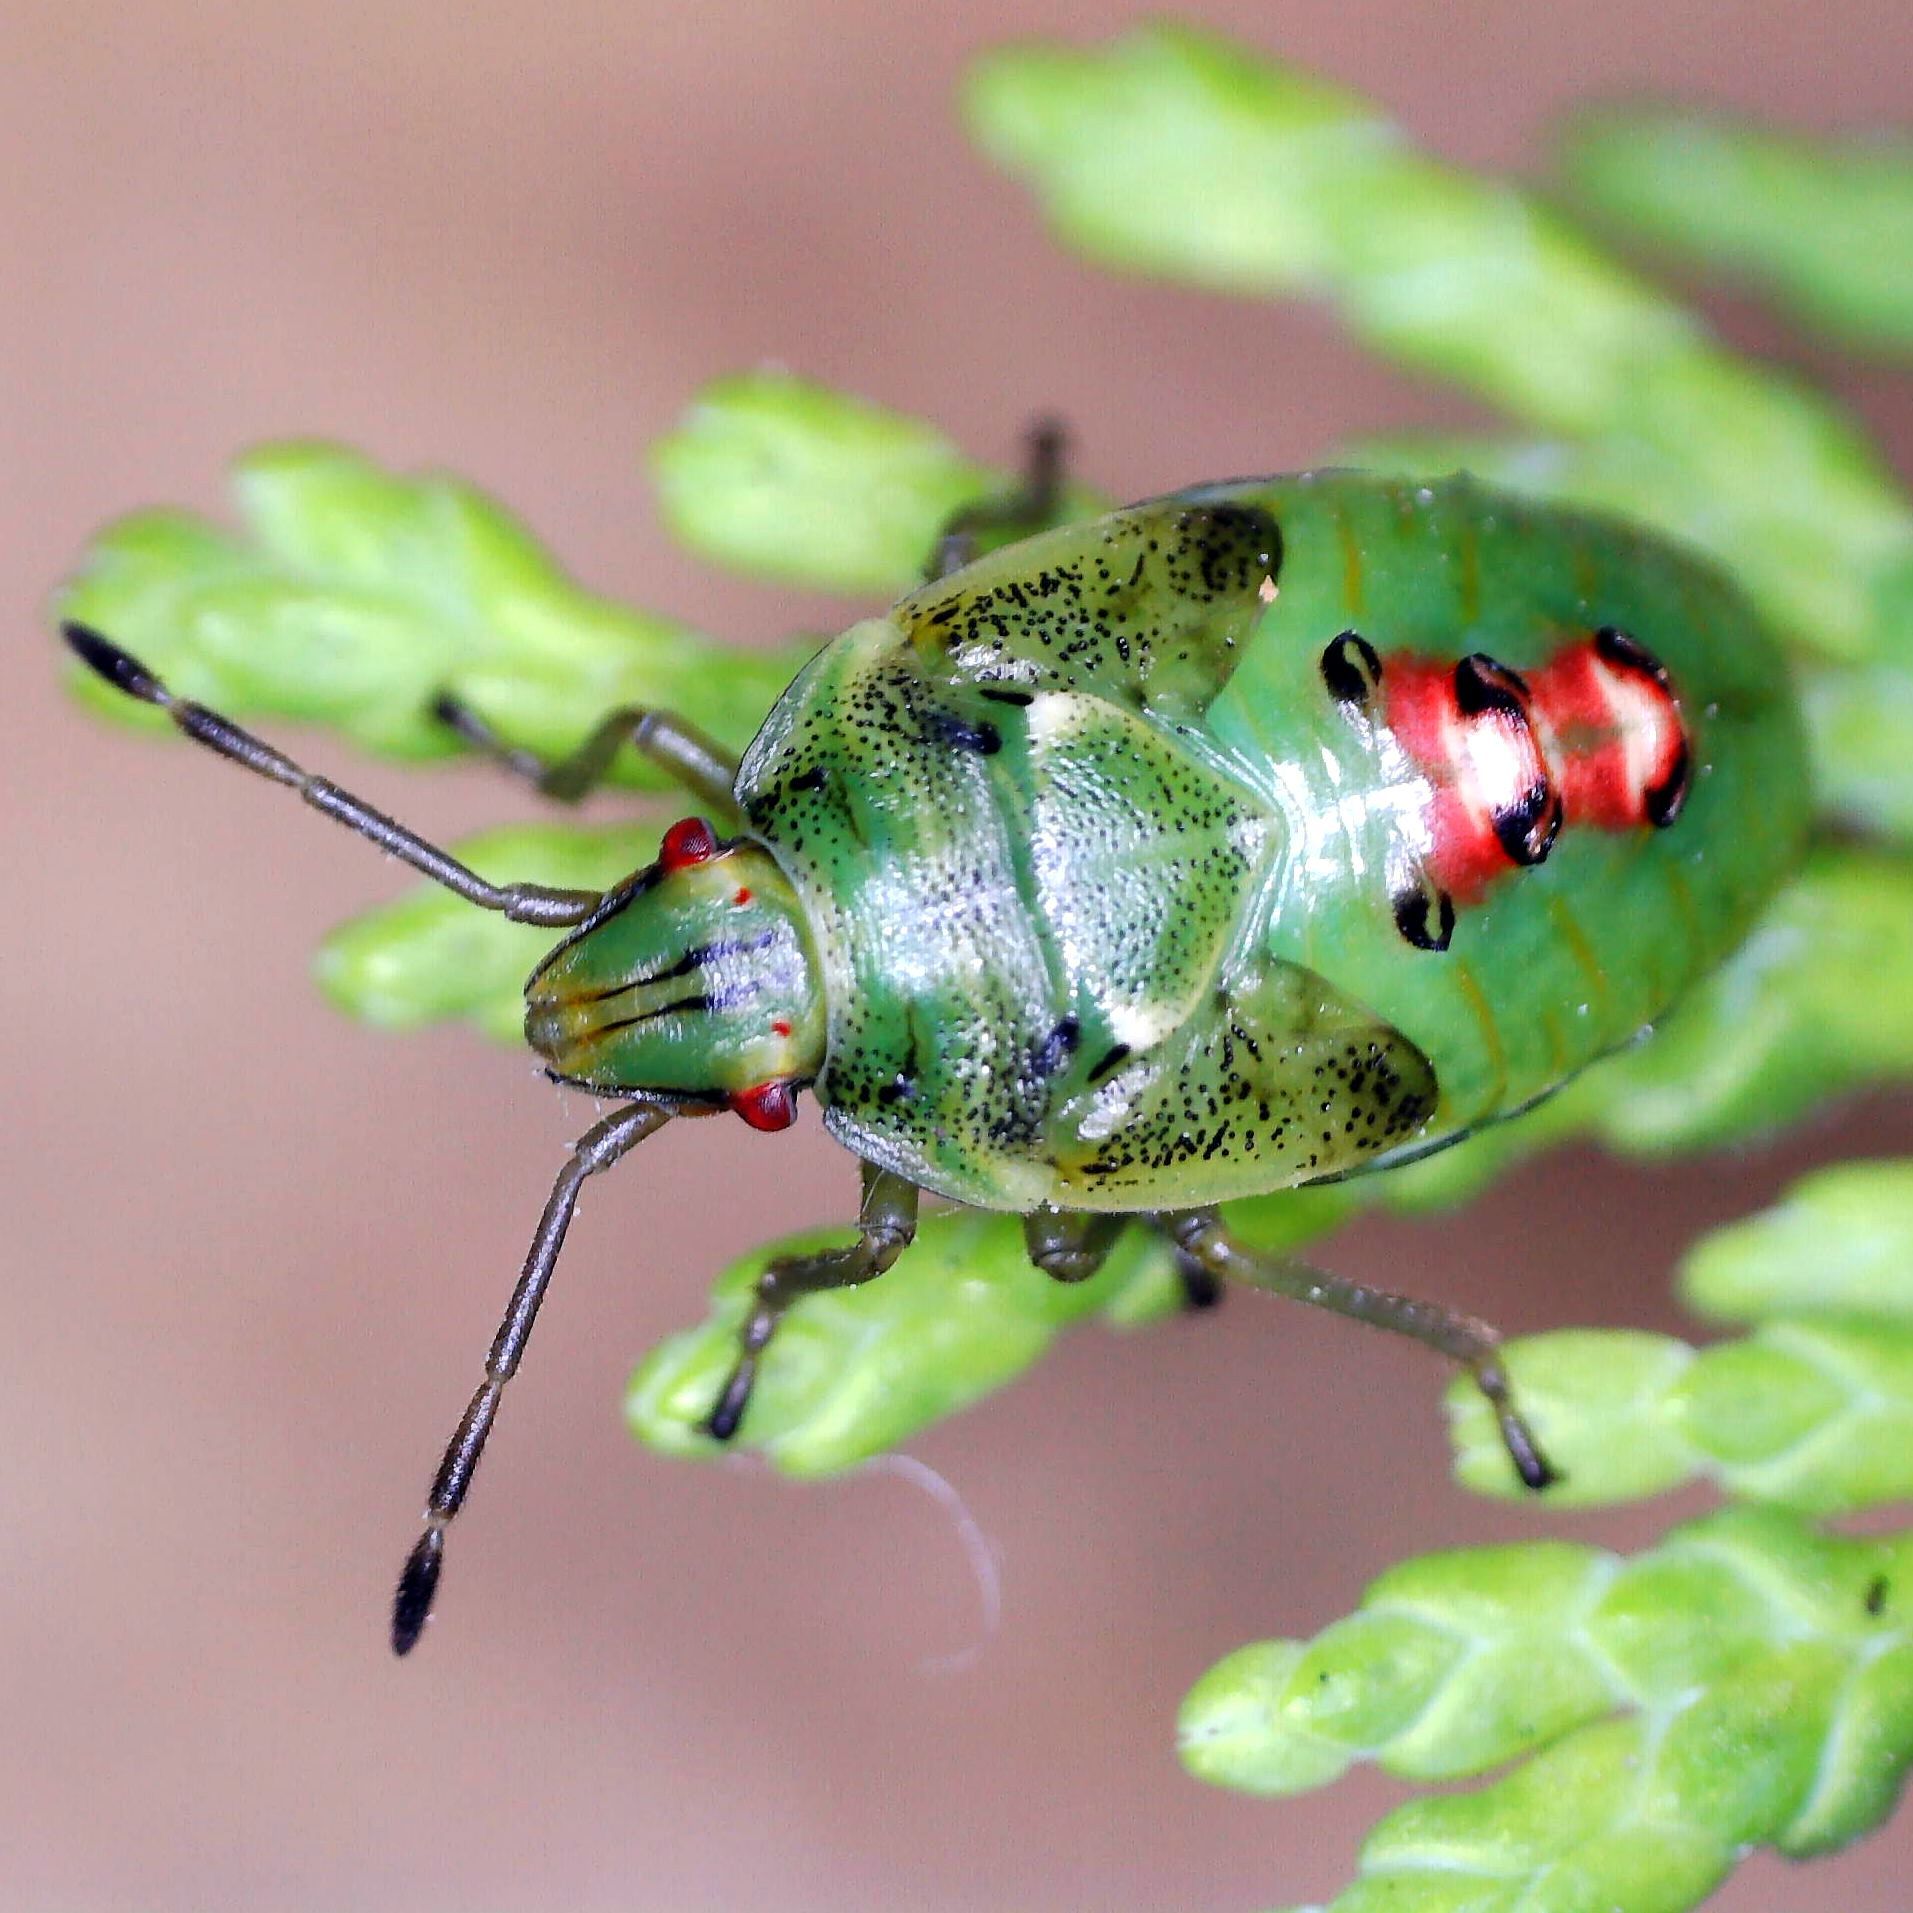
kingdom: Animalia
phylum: Arthropoda
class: Insecta
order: Hemiptera
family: Acanthosomatidae
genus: Cyphostethus
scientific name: Cyphostethus tristriatus
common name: Juniper shieldbug
